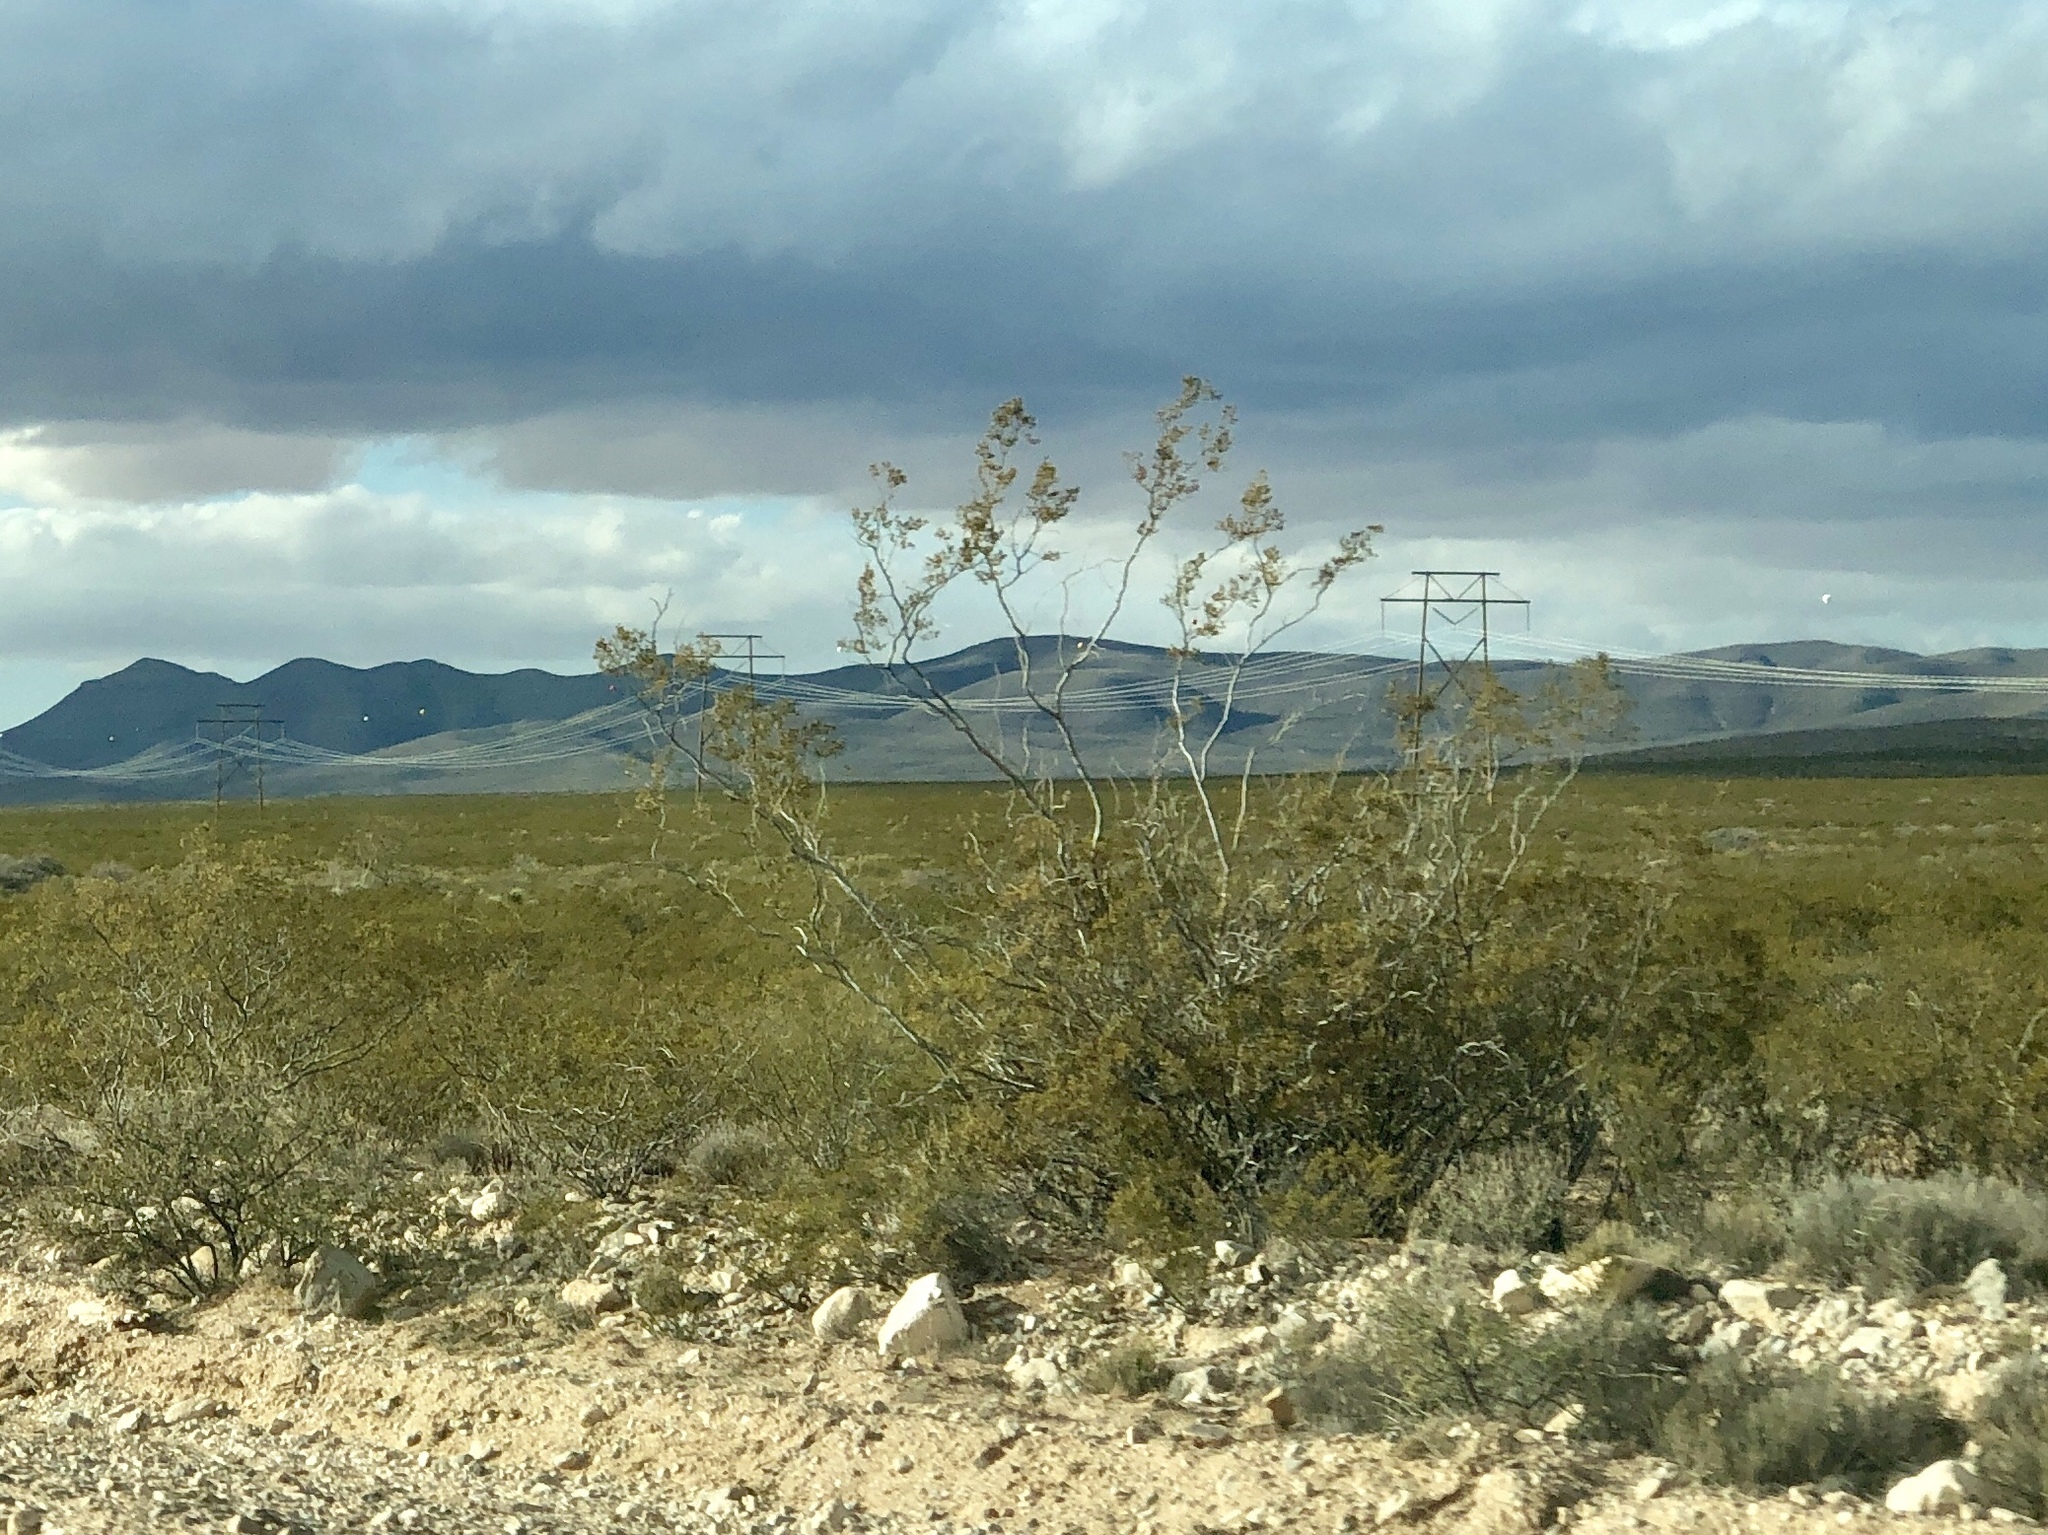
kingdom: Plantae
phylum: Tracheophyta
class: Magnoliopsida
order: Zygophyllales
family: Zygophyllaceae
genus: Larrea
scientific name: Larrea tridentata
